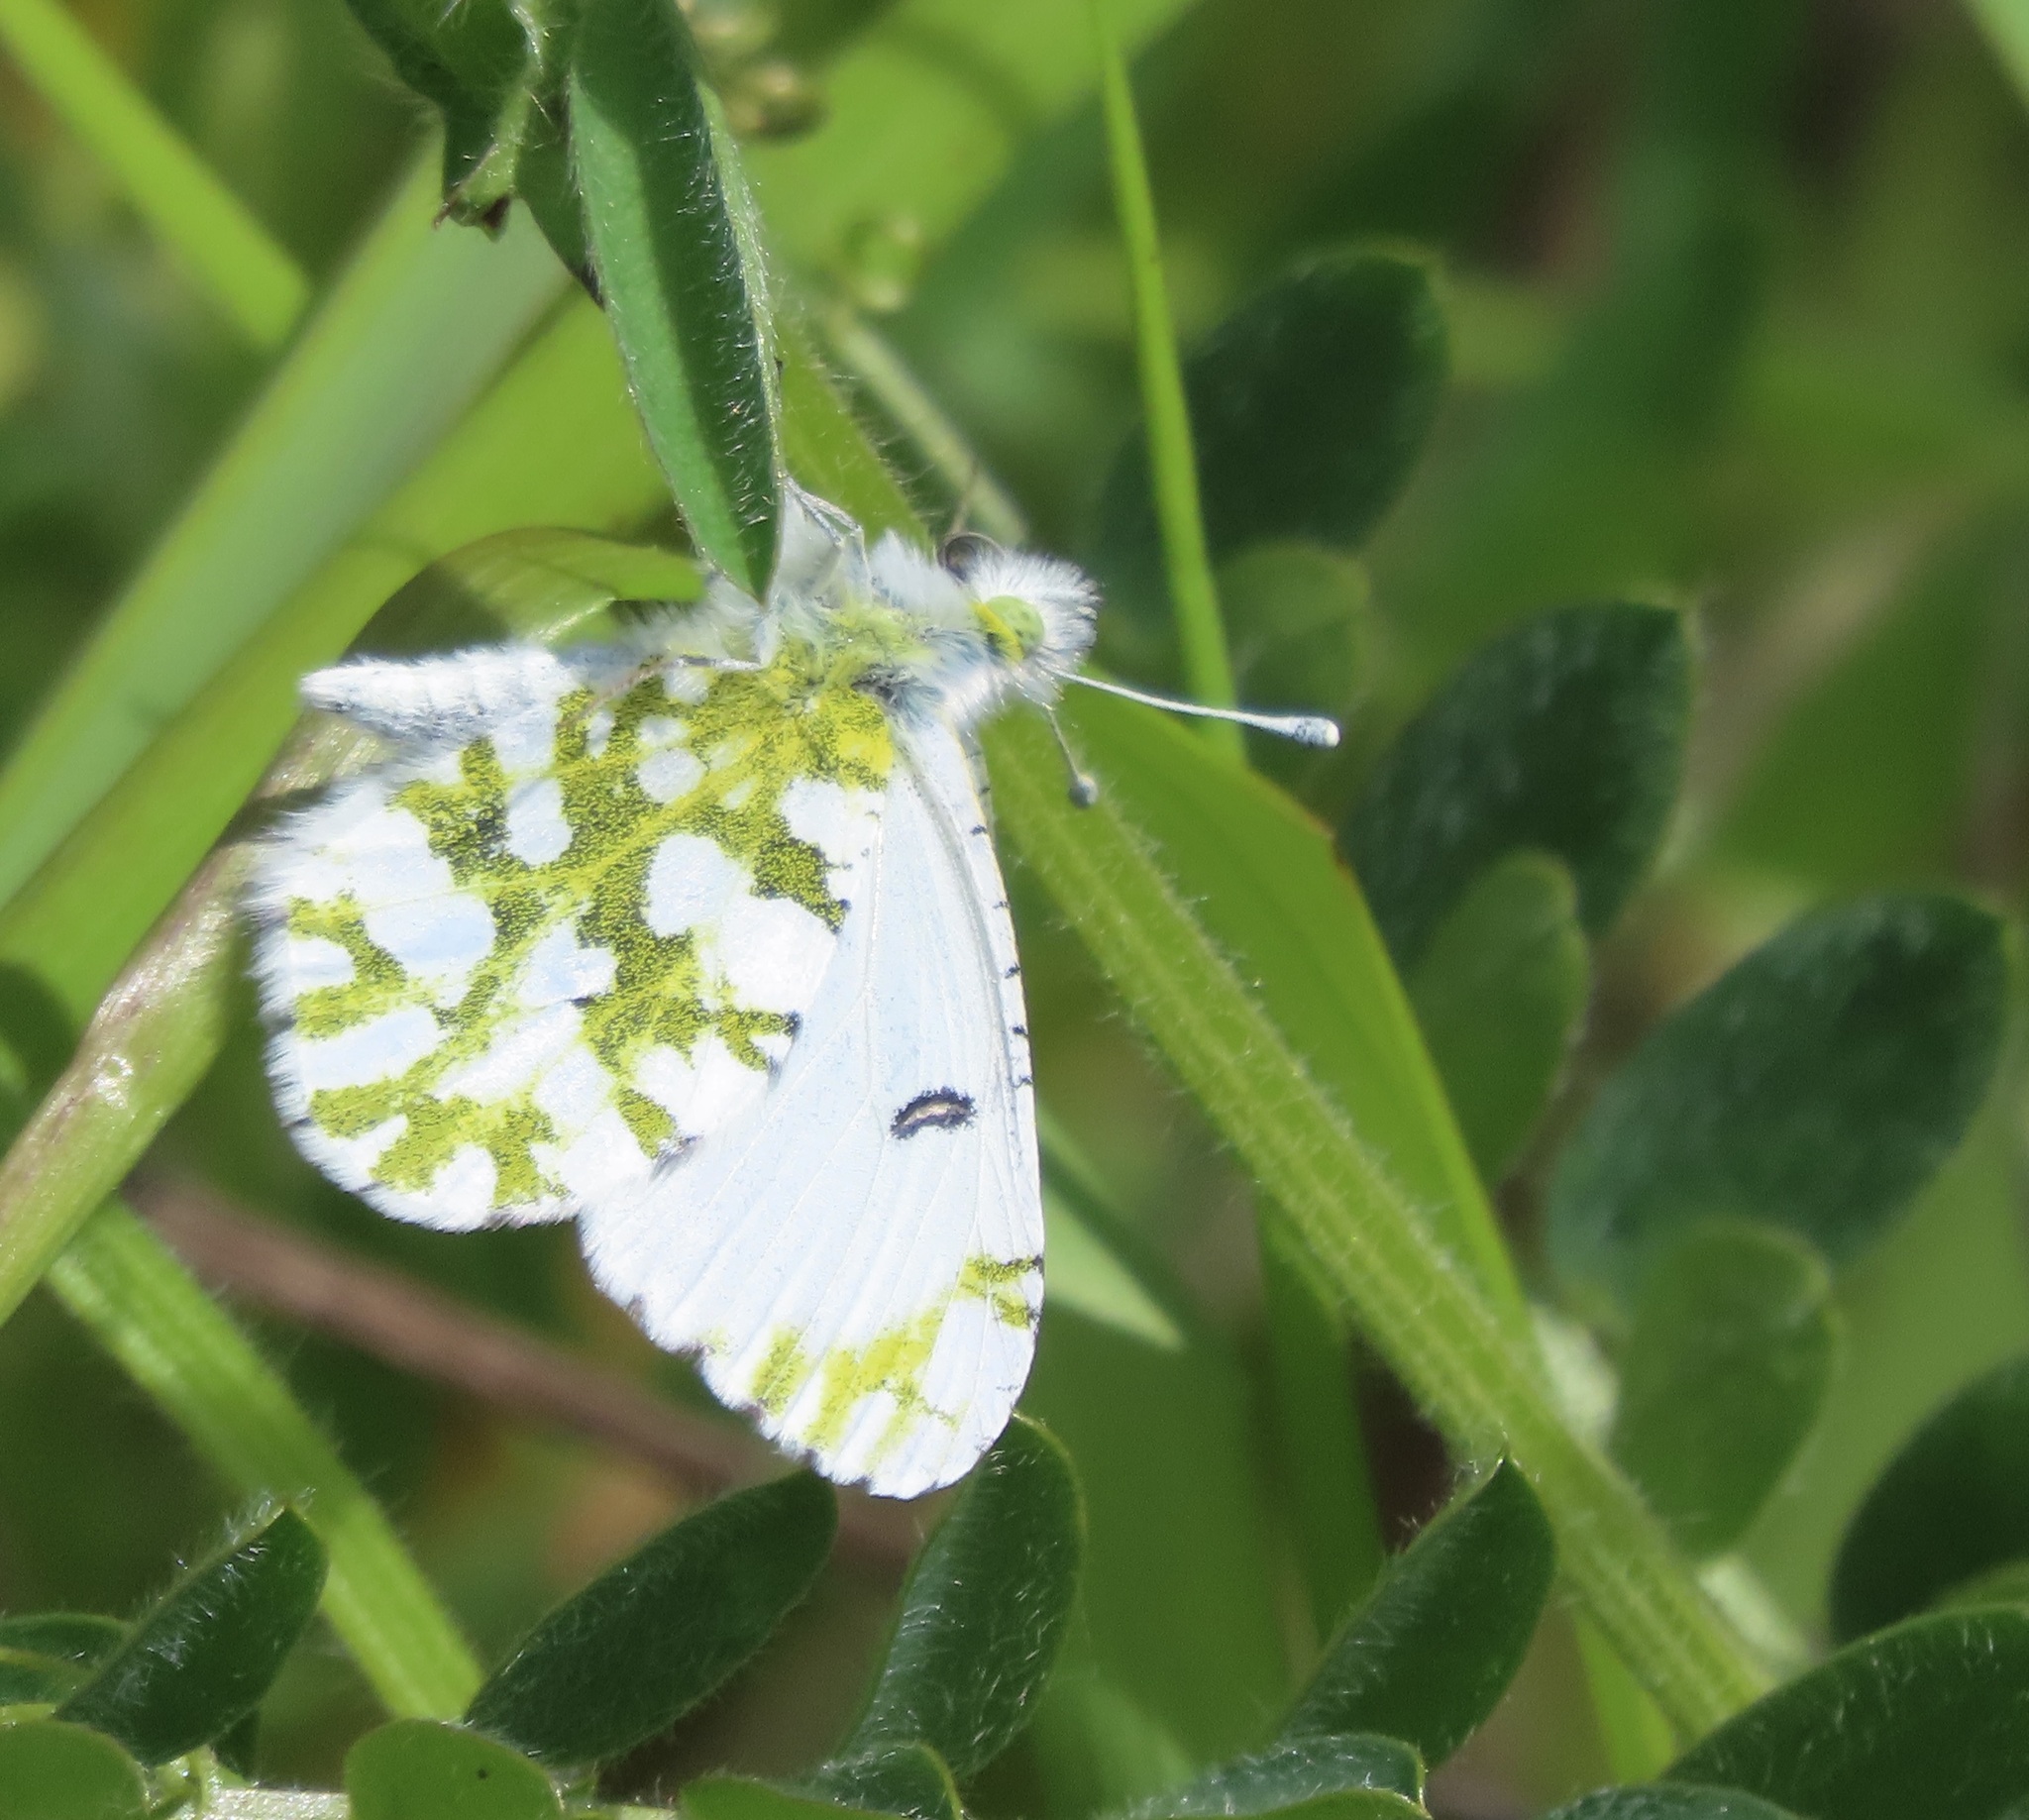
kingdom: Animalia
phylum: Arthropoda
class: Insecta
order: Lepidoptera
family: Pieridae
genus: Euchloe
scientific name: Euchloe hyantis
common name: California marble
